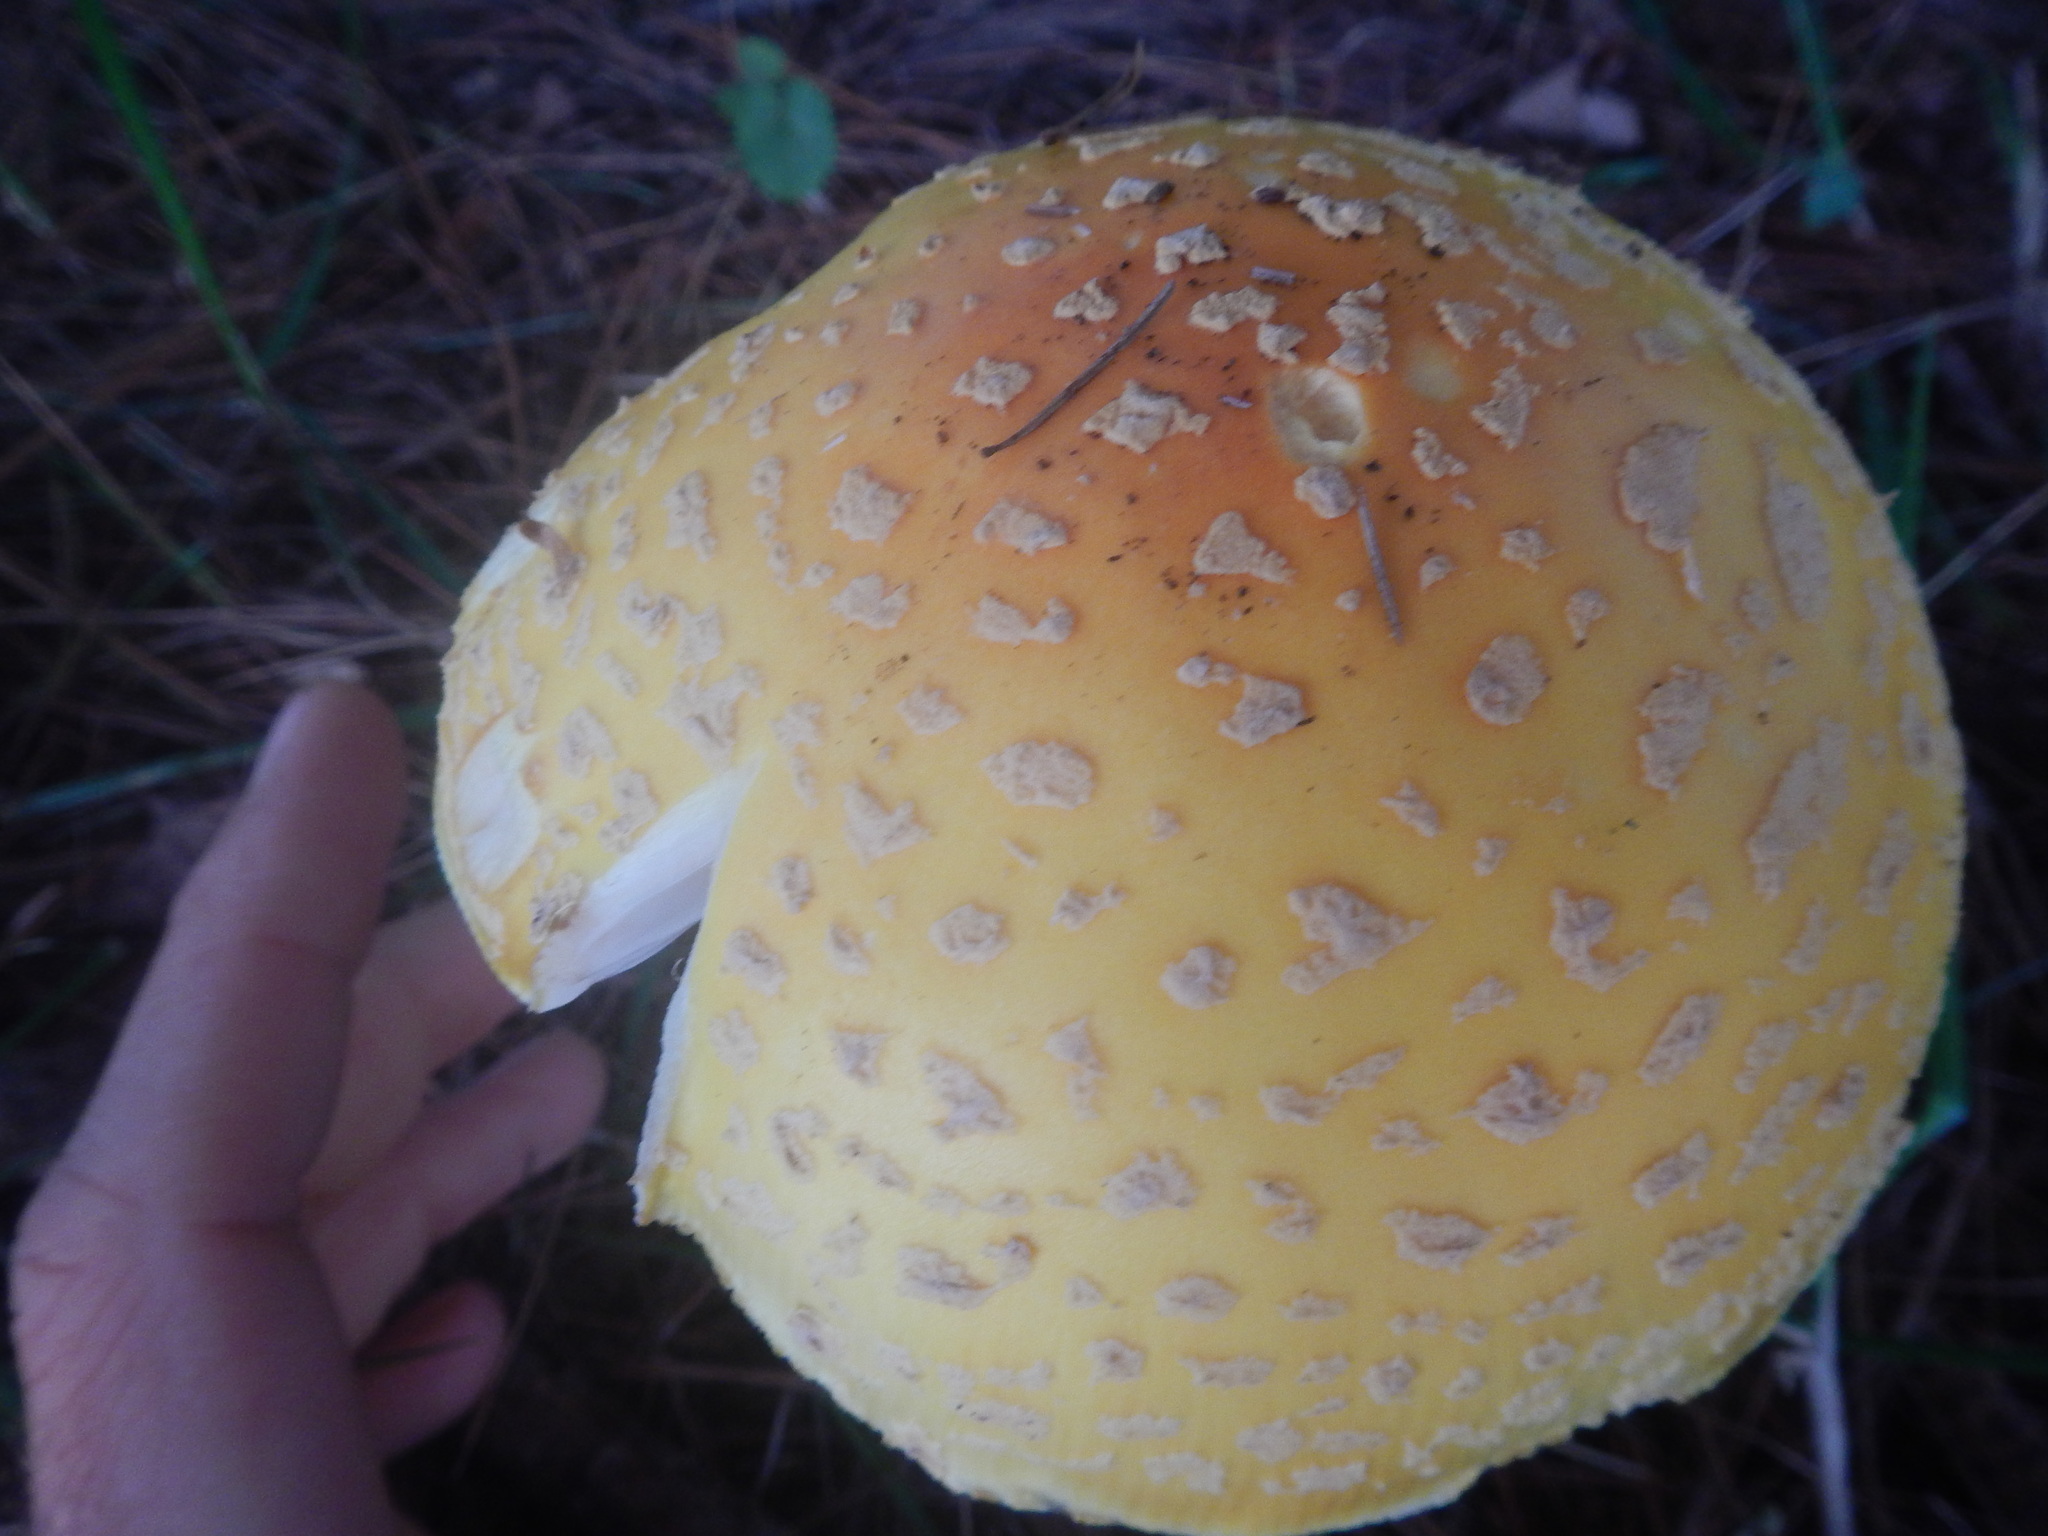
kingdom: Fungi
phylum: Basidiomycota
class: Agaricomycetes
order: Agaricales
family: Amanitaceae
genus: Amanita
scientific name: Amanita muscaria
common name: Fly agaric
